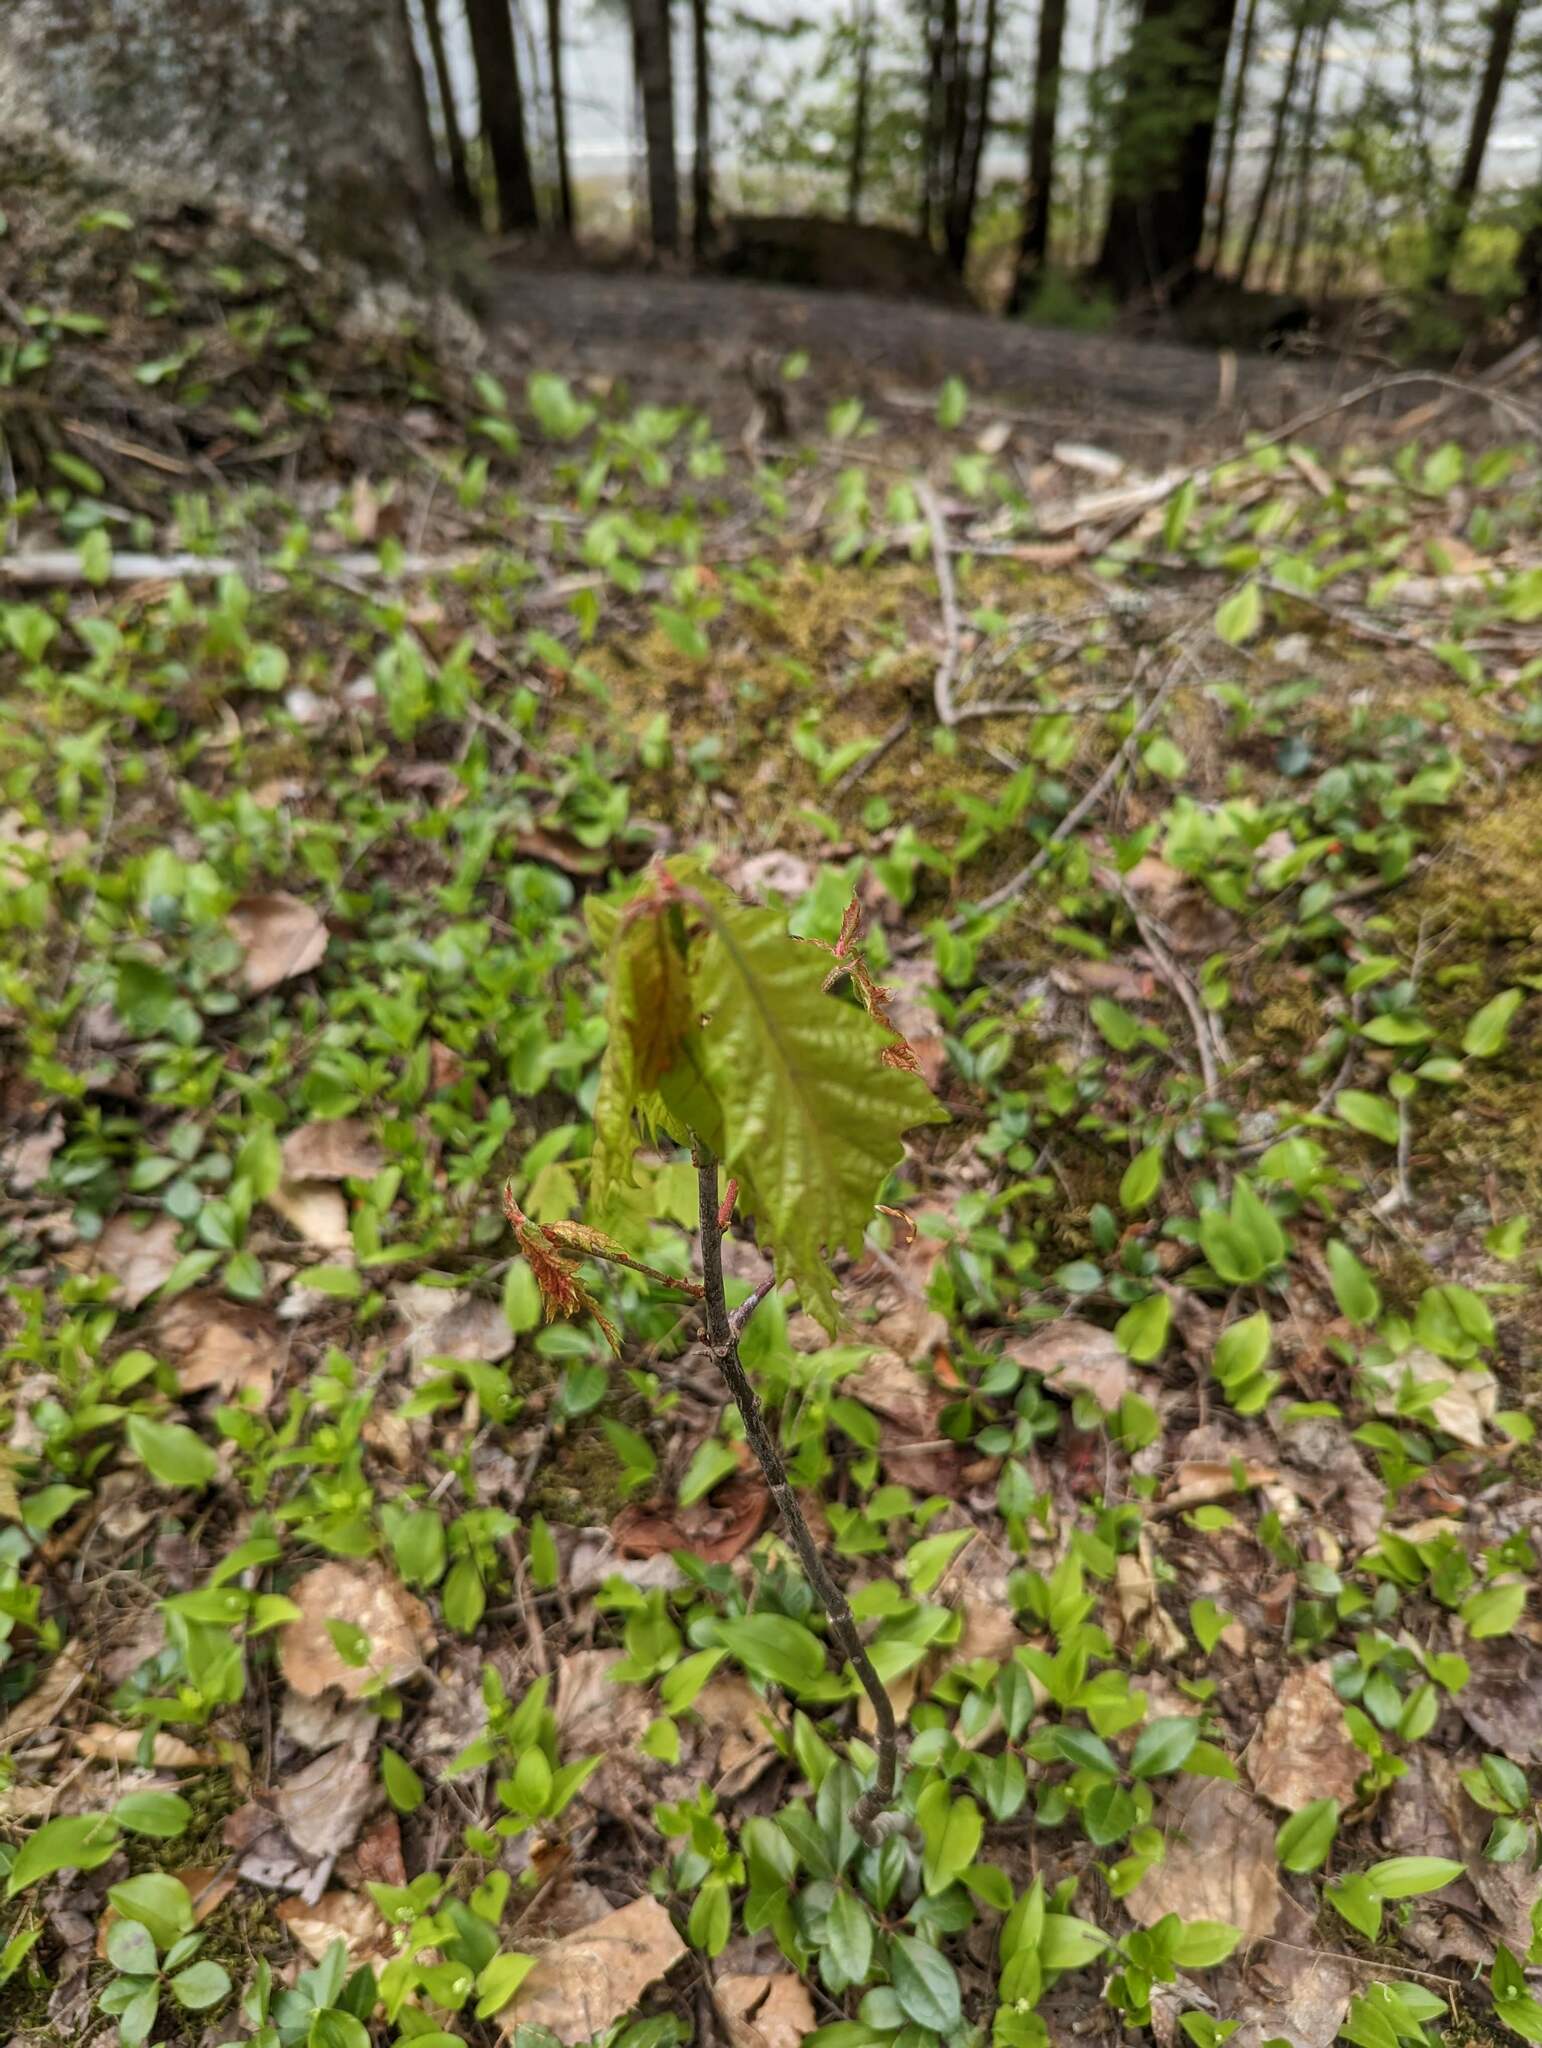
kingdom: Plantae
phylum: Tracheophyta
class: Magnoliopsida
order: Fagales
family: Fagaceae
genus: Quercus
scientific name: Quercus rubra
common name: Red oak
